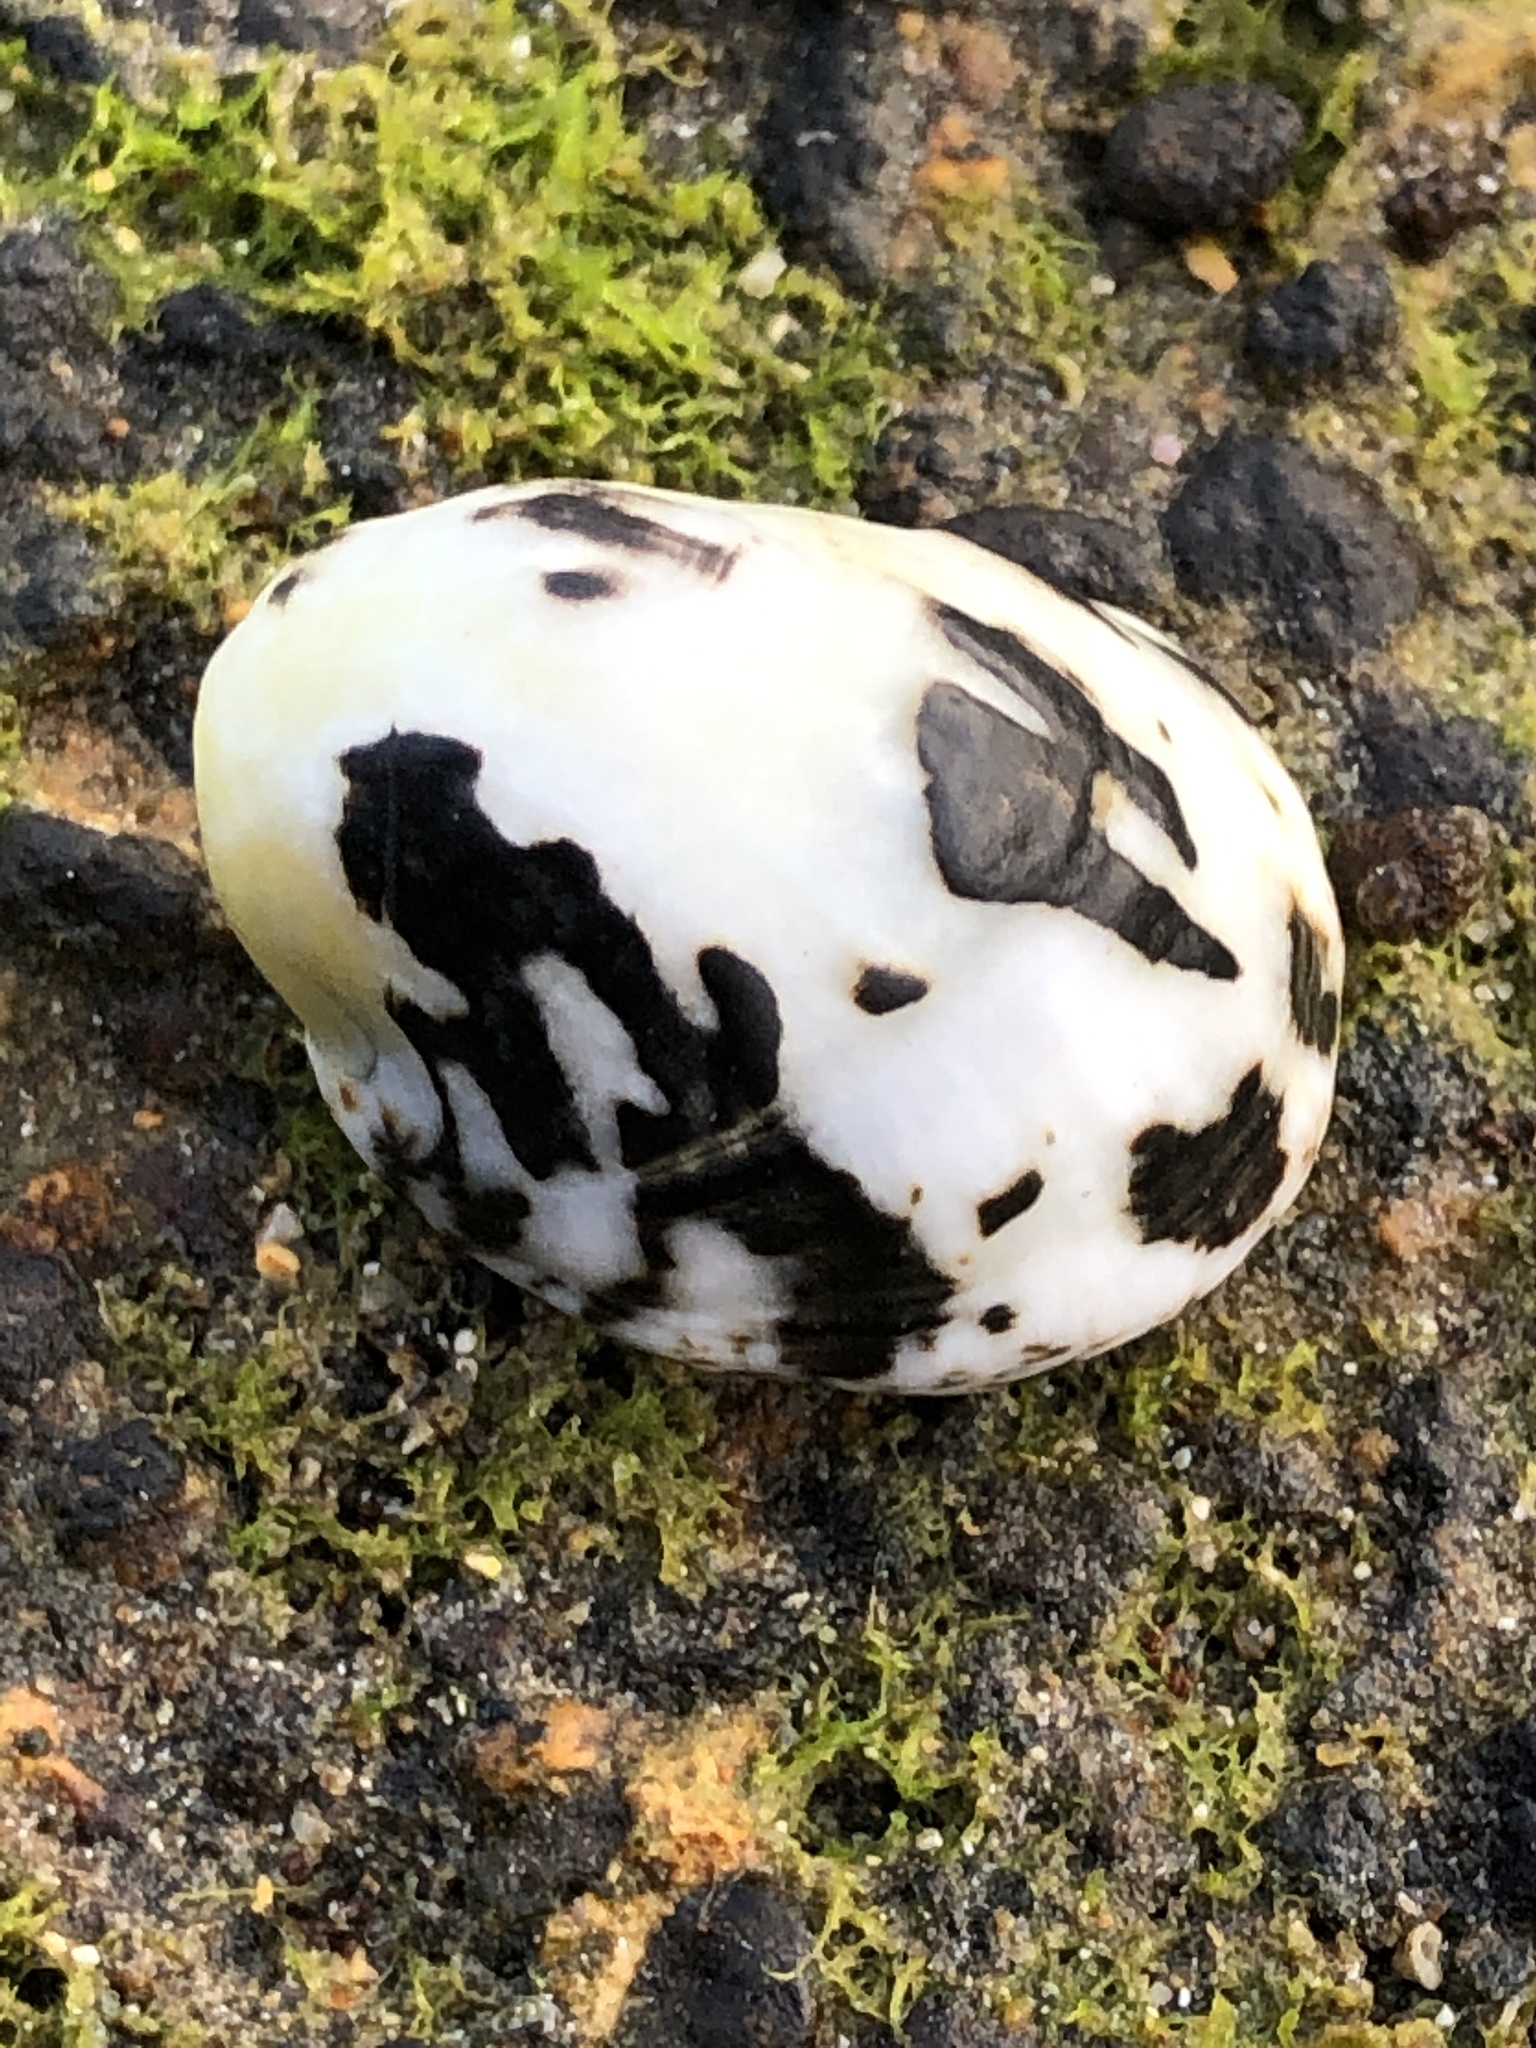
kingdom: Animalia
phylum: Mollusca
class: Gastropoda
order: Cycloneritida
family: Neritidae
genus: Nerita
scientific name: Nerita albicilla
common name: Blotched nerite
